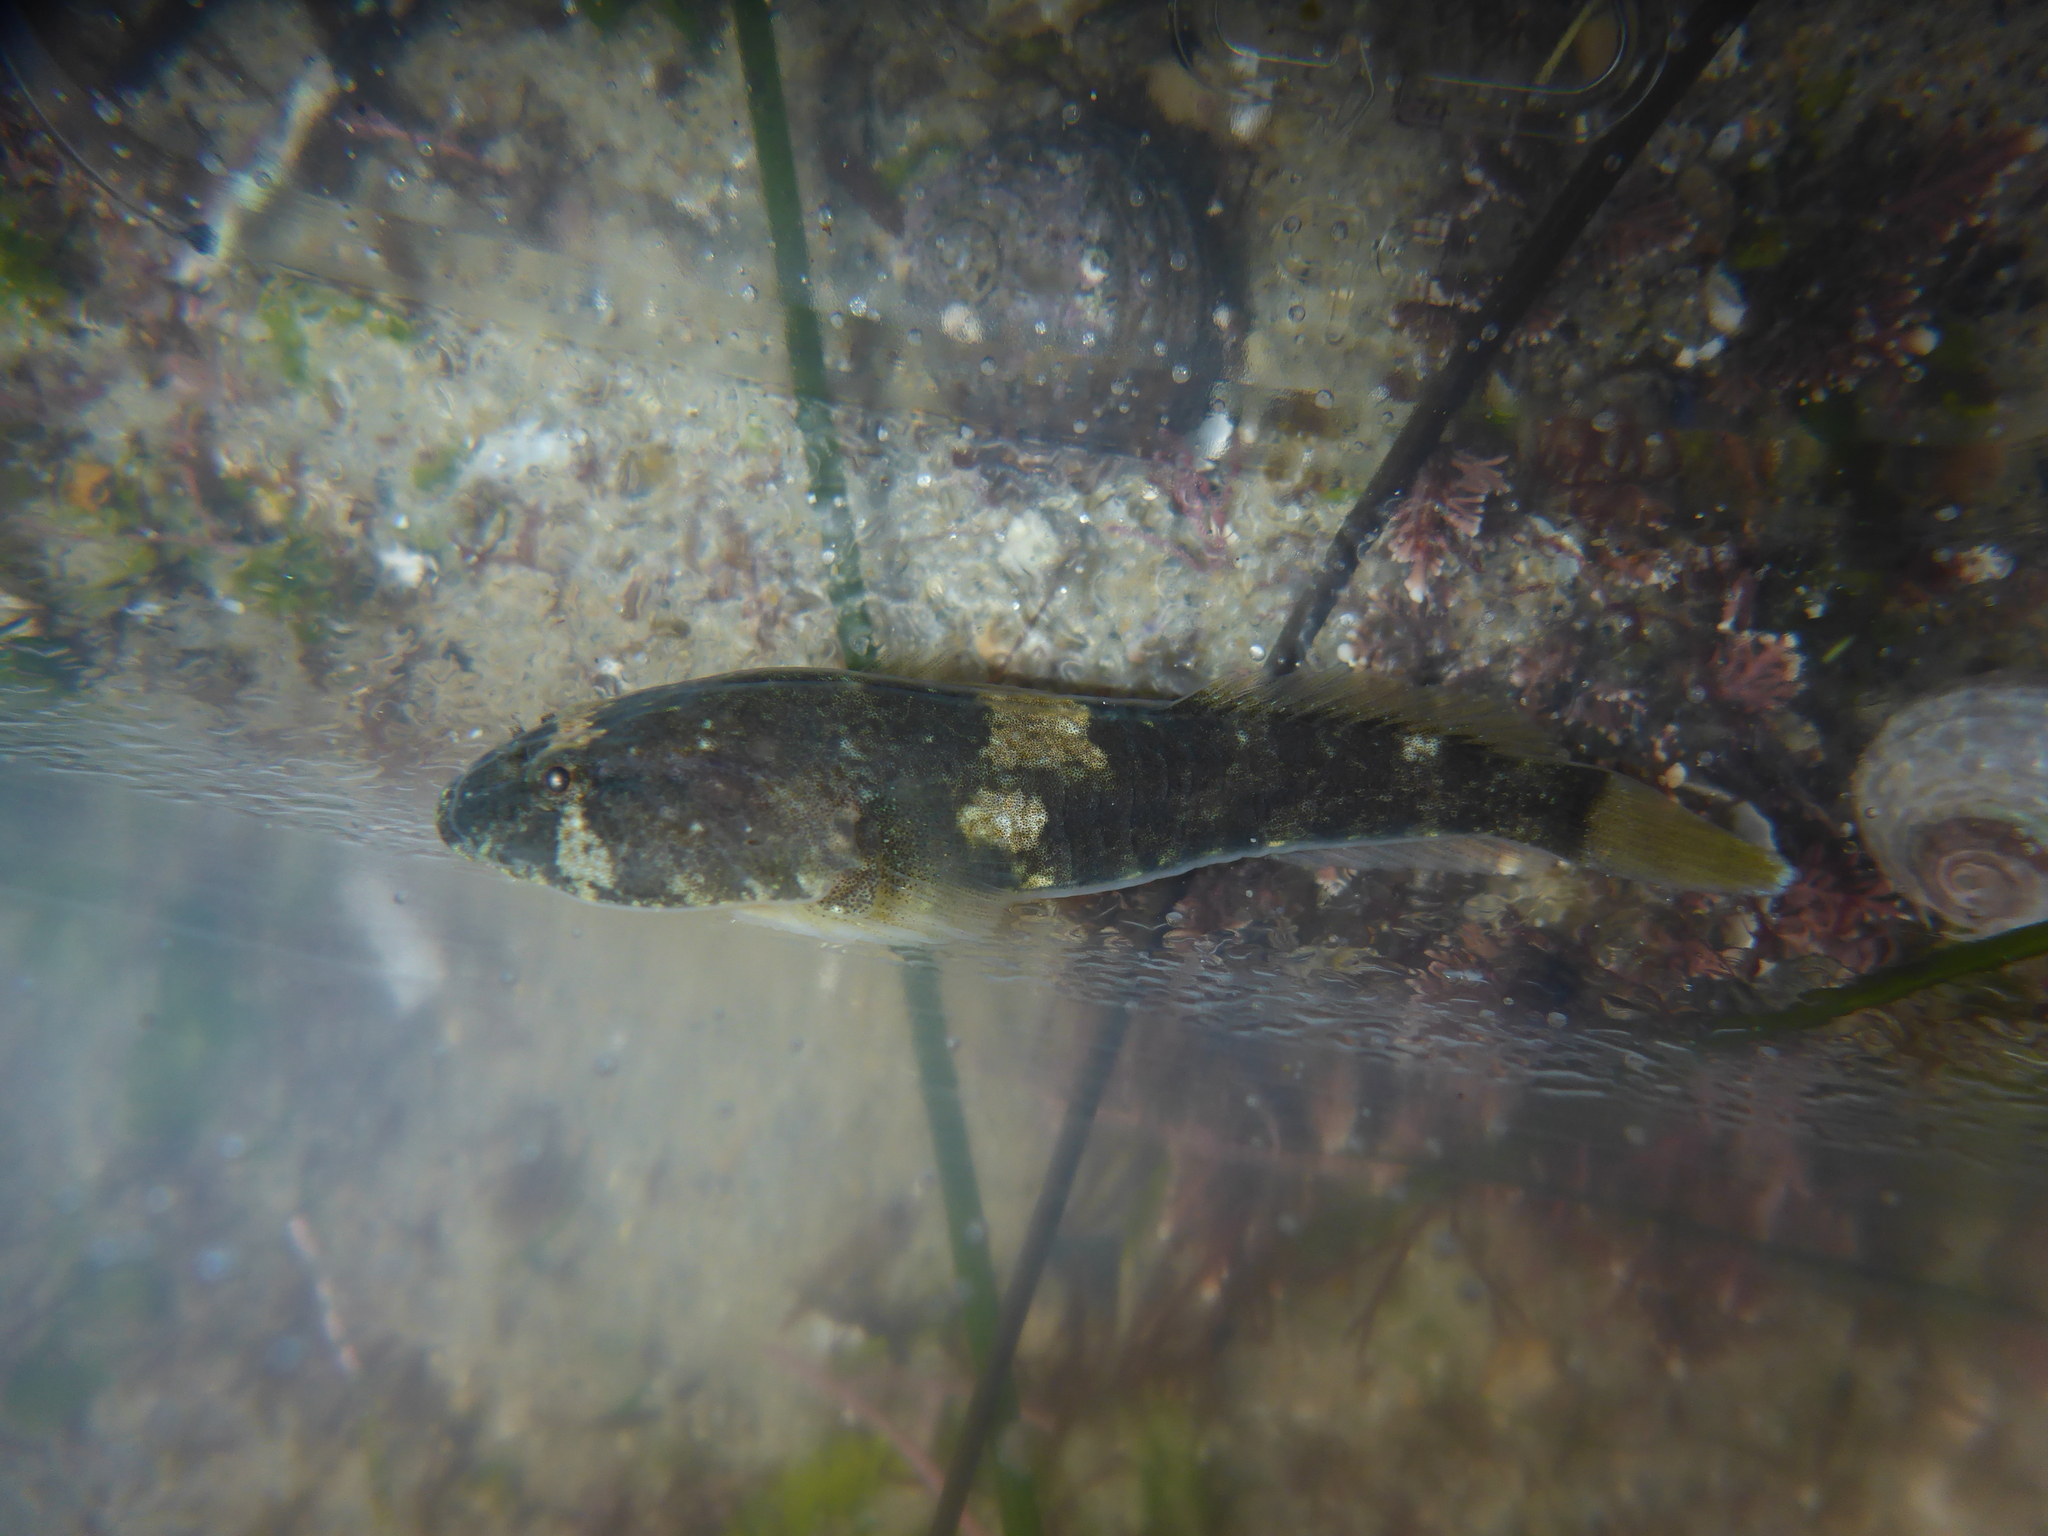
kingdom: Animalia
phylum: Chordata
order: Gobiesociformes
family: Gobiesocidae
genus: Gobiesox
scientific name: Gobiesox rhessodon
